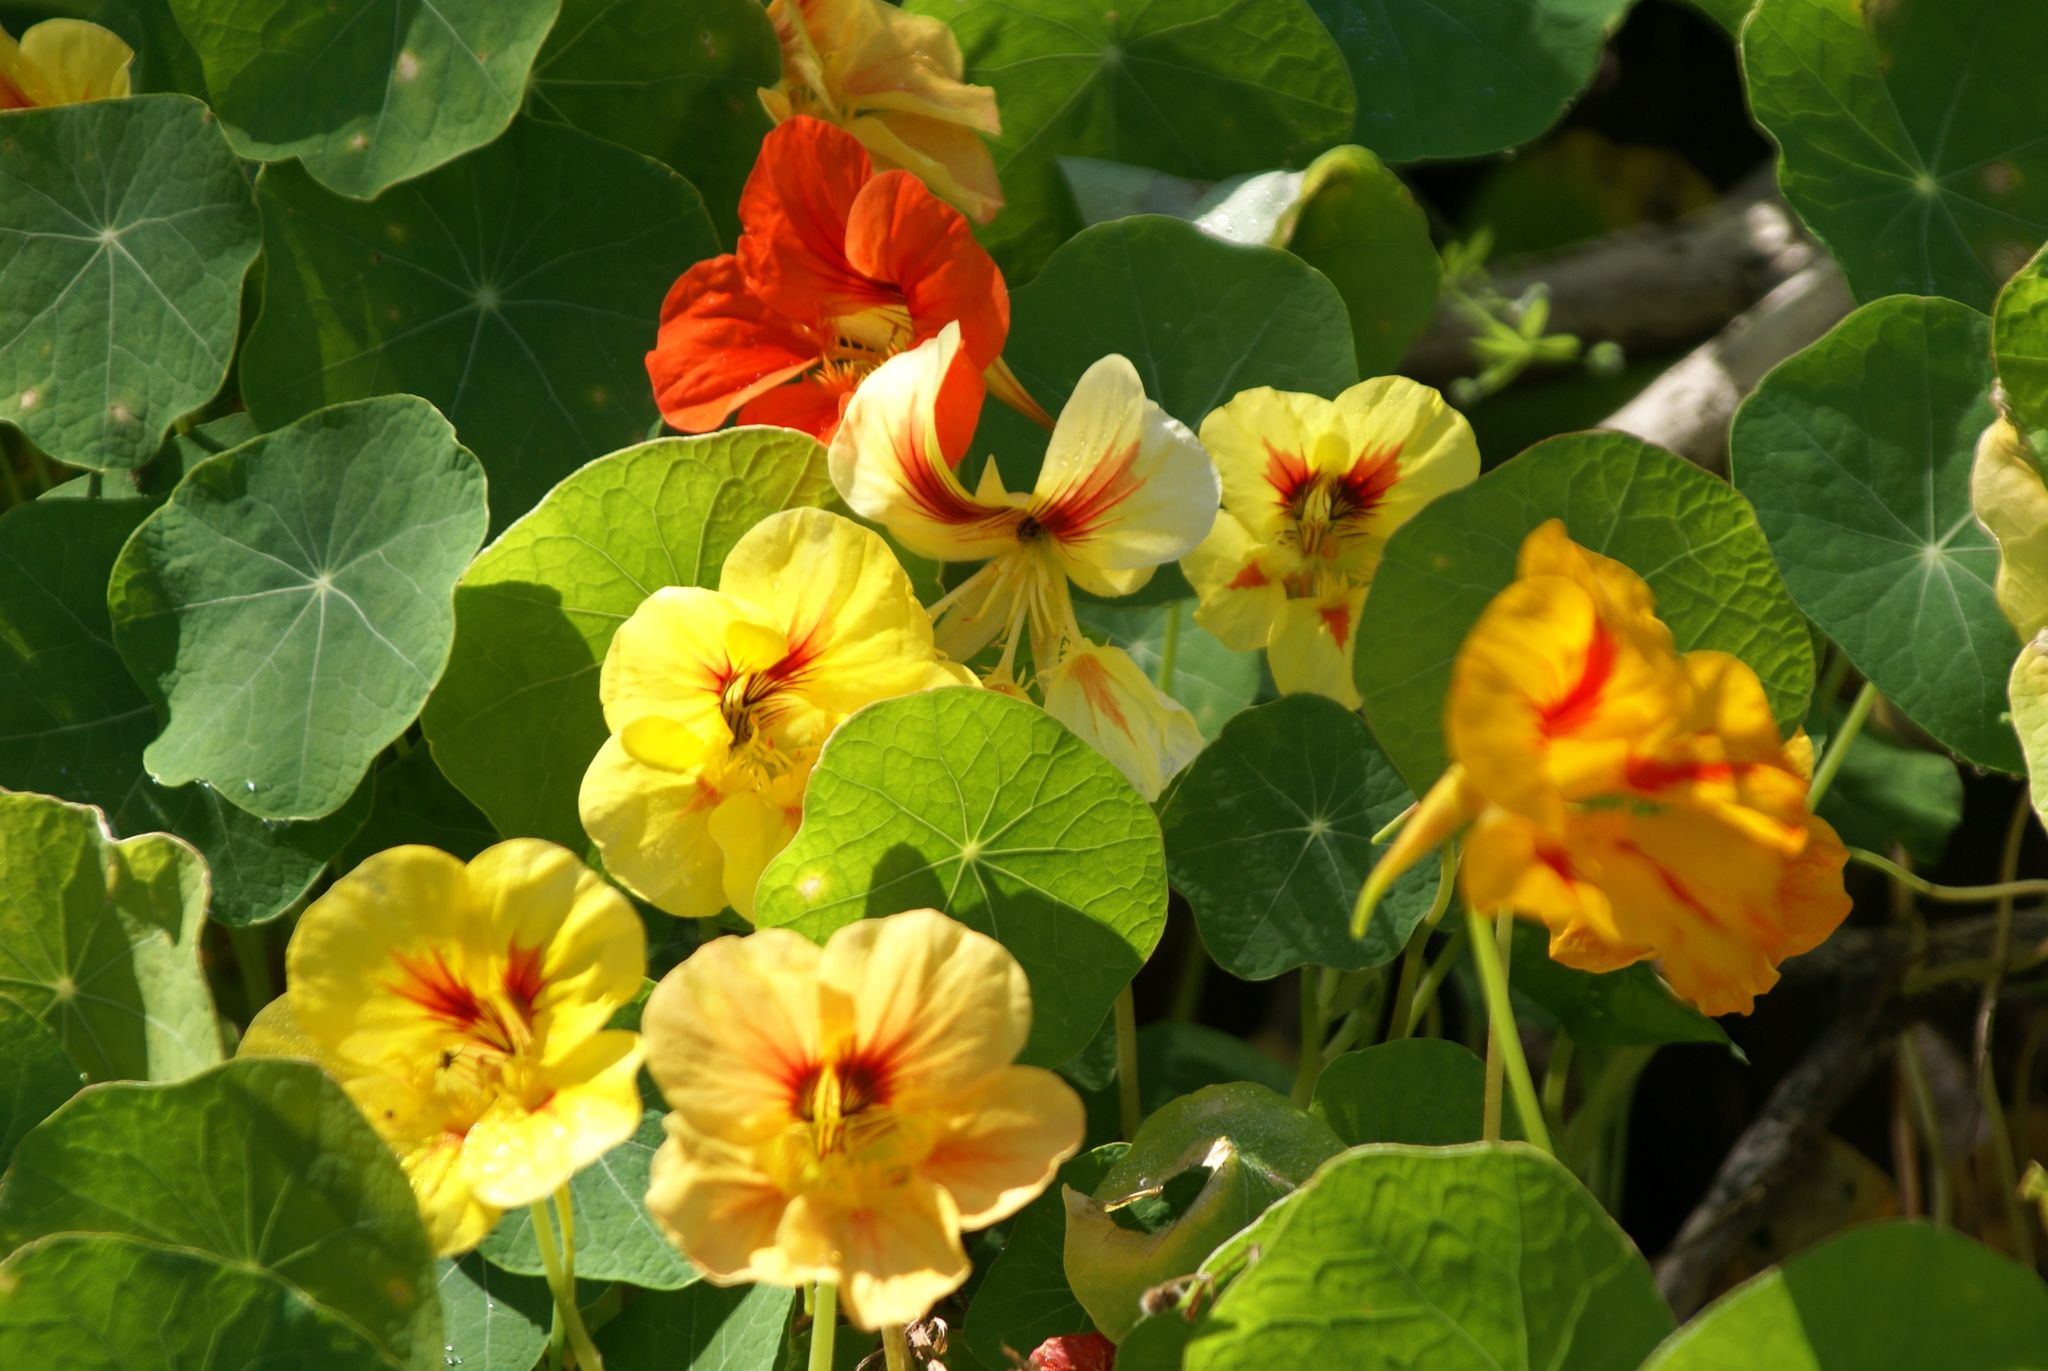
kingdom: Plantae
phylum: Tracheophyta
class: Magnoliopsida
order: Brassicales
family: Tropaeolaceae
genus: Tropaeolum
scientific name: Tropaeolum majus
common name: Nasturtium
